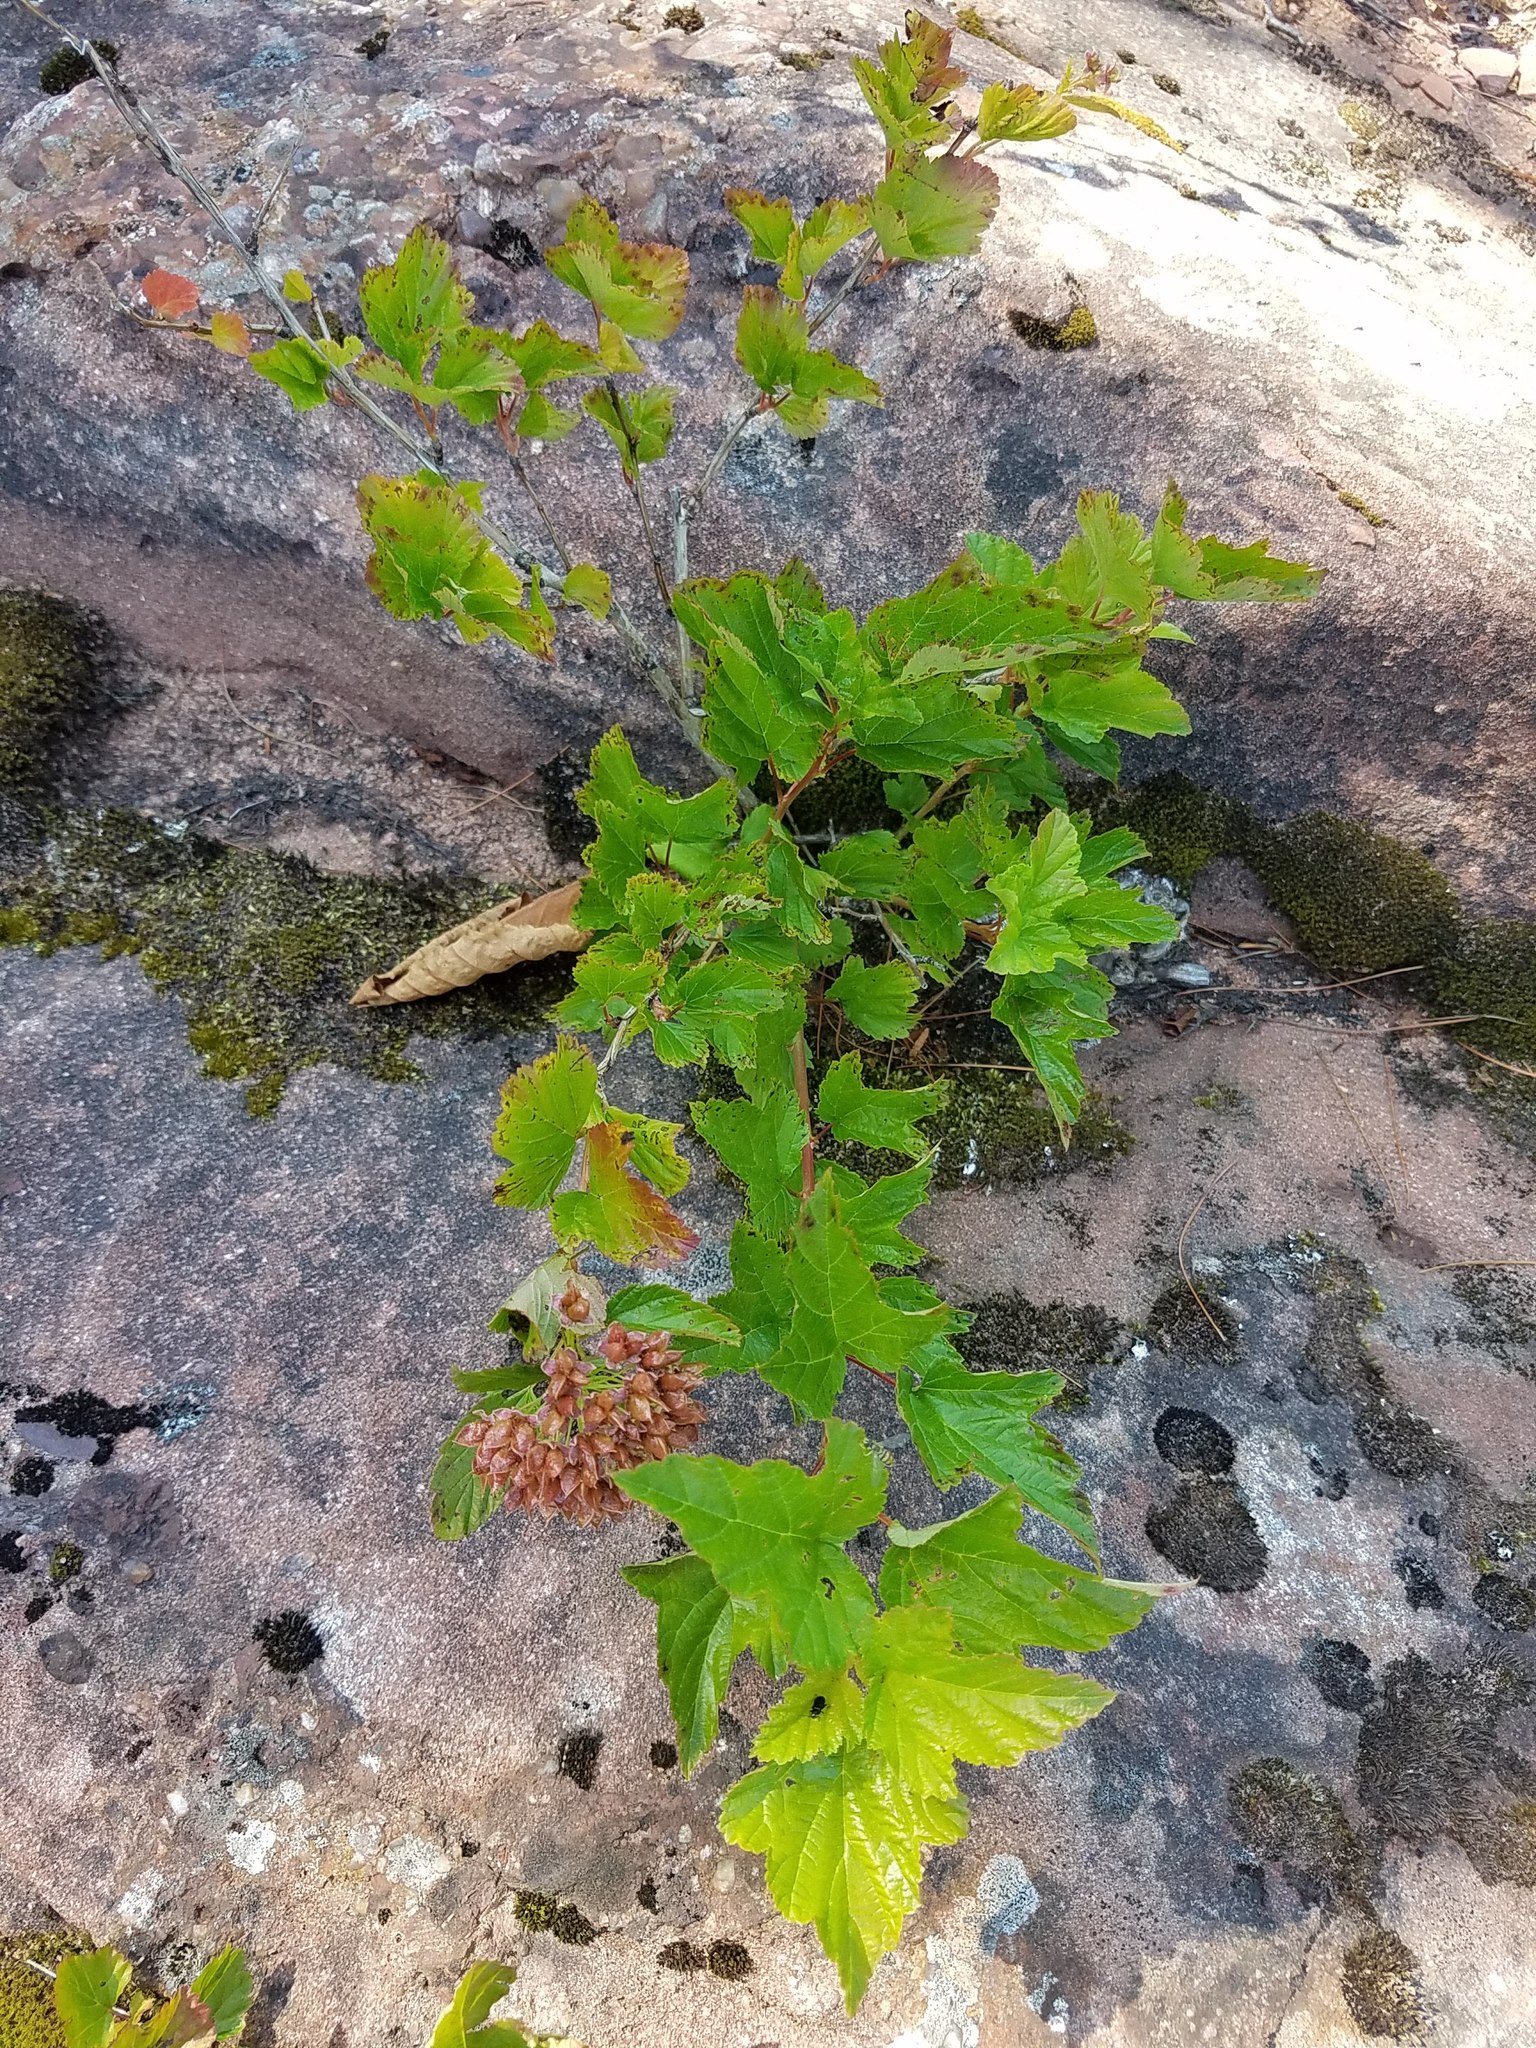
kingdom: Plantae
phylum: Tracheophyta
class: Magnoliopsida
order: Rosales
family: Rosaceae
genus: Physocarpus
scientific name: Physocarpus opulifolius
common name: Ninebark
